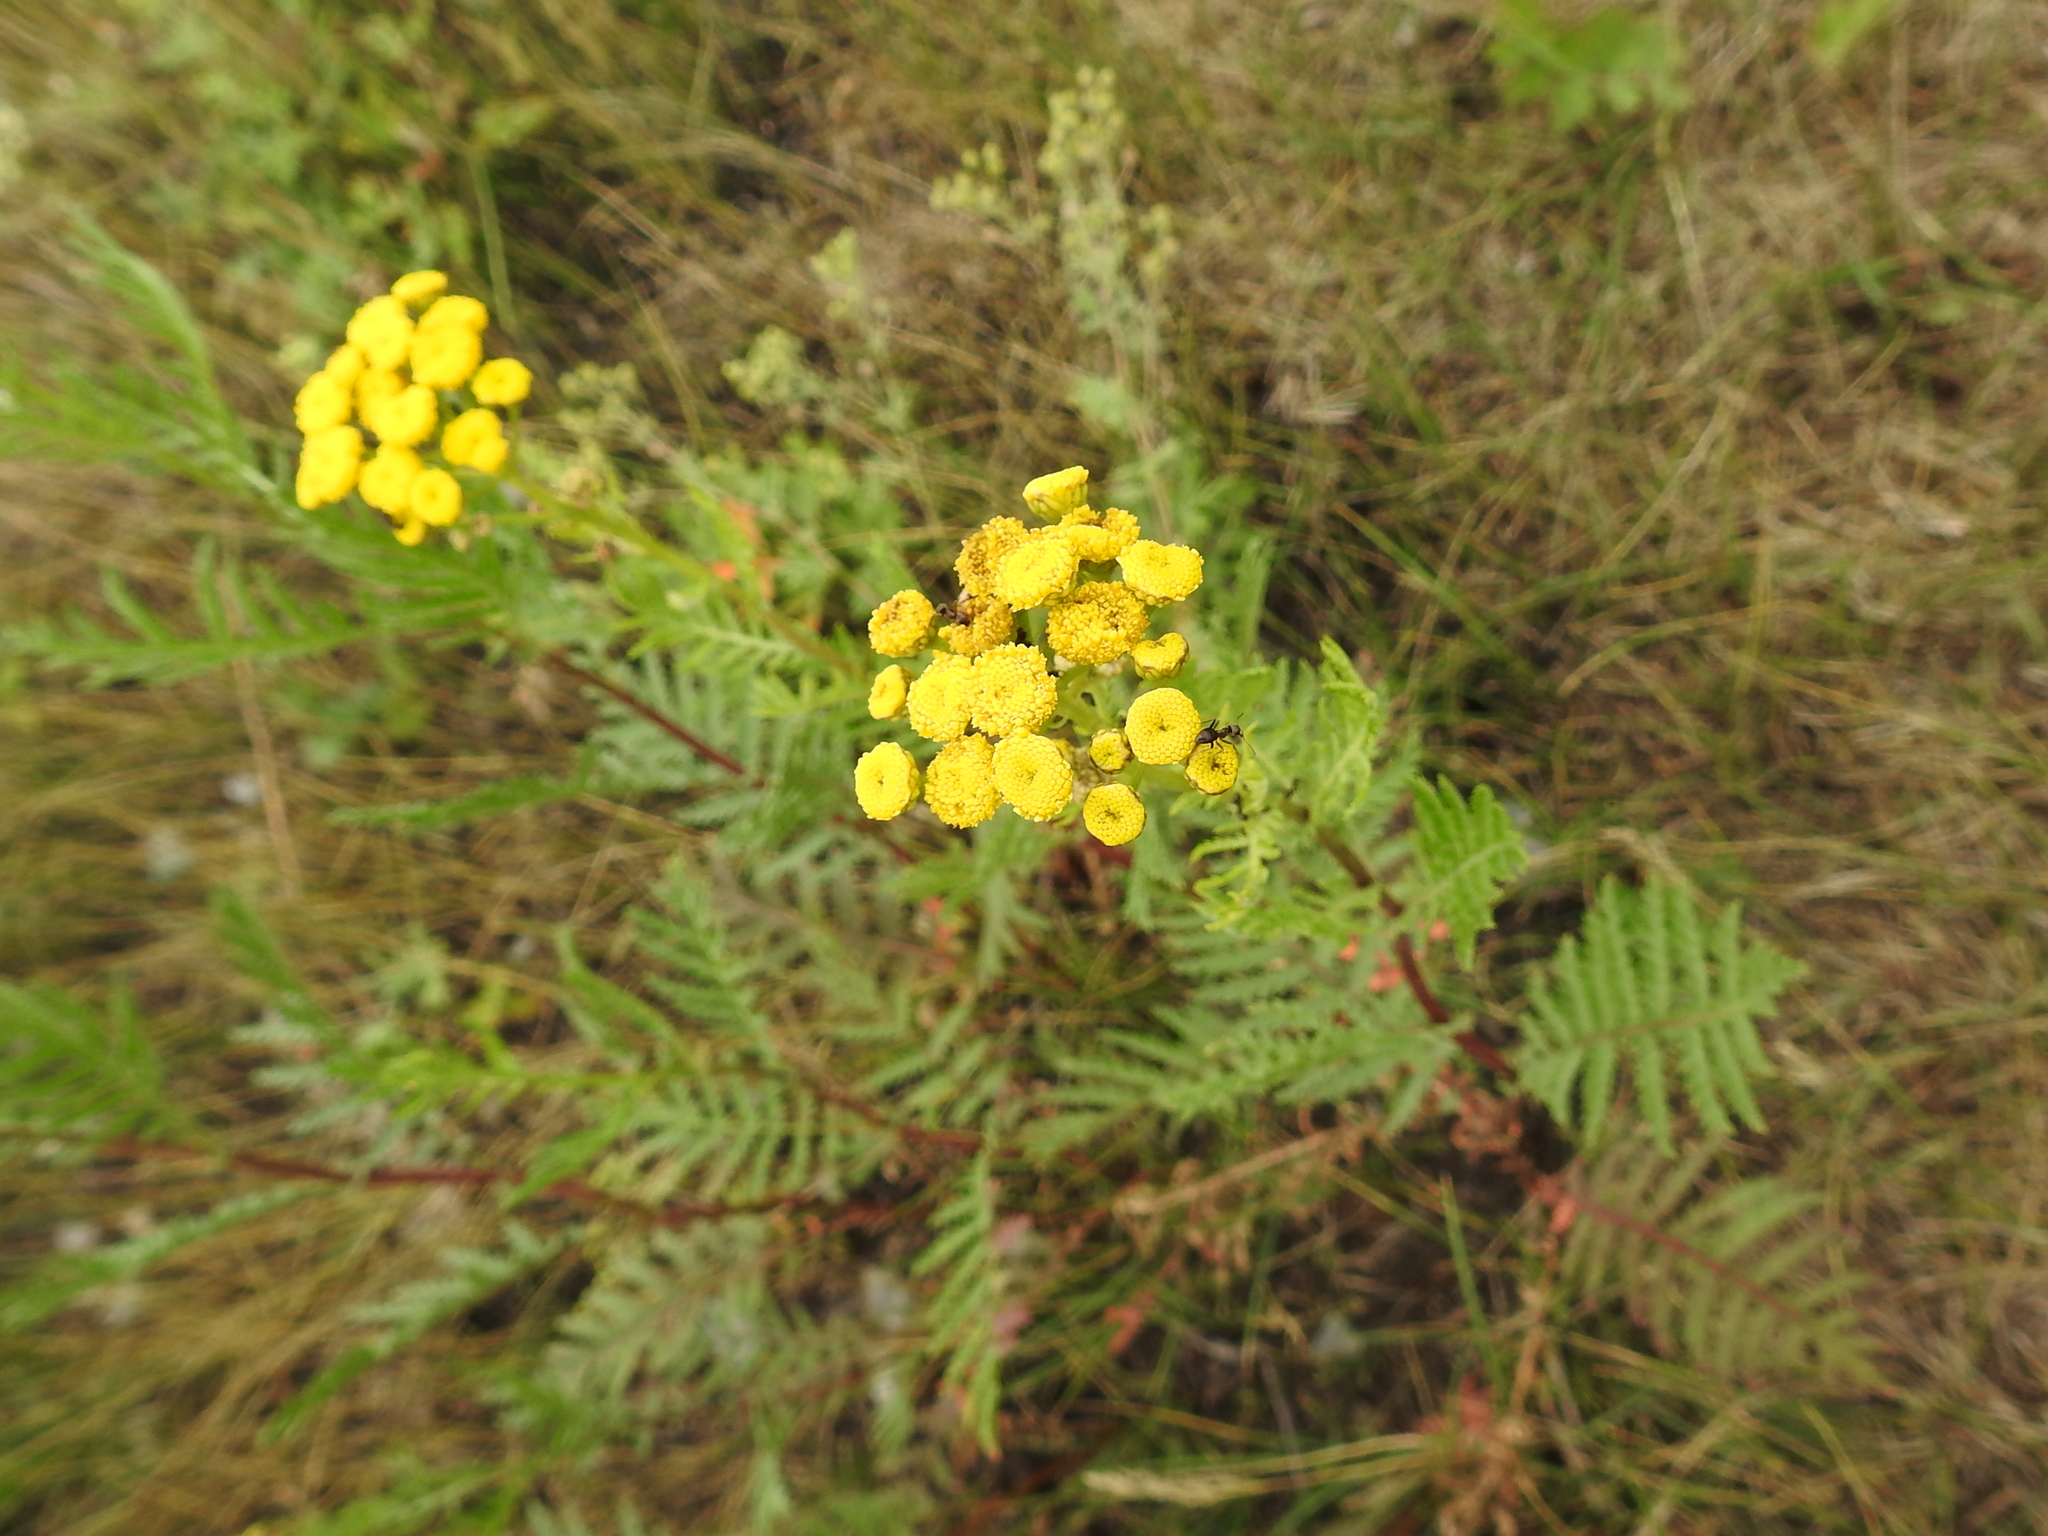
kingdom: Plantae
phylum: Tracheophyta
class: Magnoliopsida
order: Asterales
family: Asteraceae
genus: Tanacetum
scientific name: Tanacetum vulgare
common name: Common tansy
